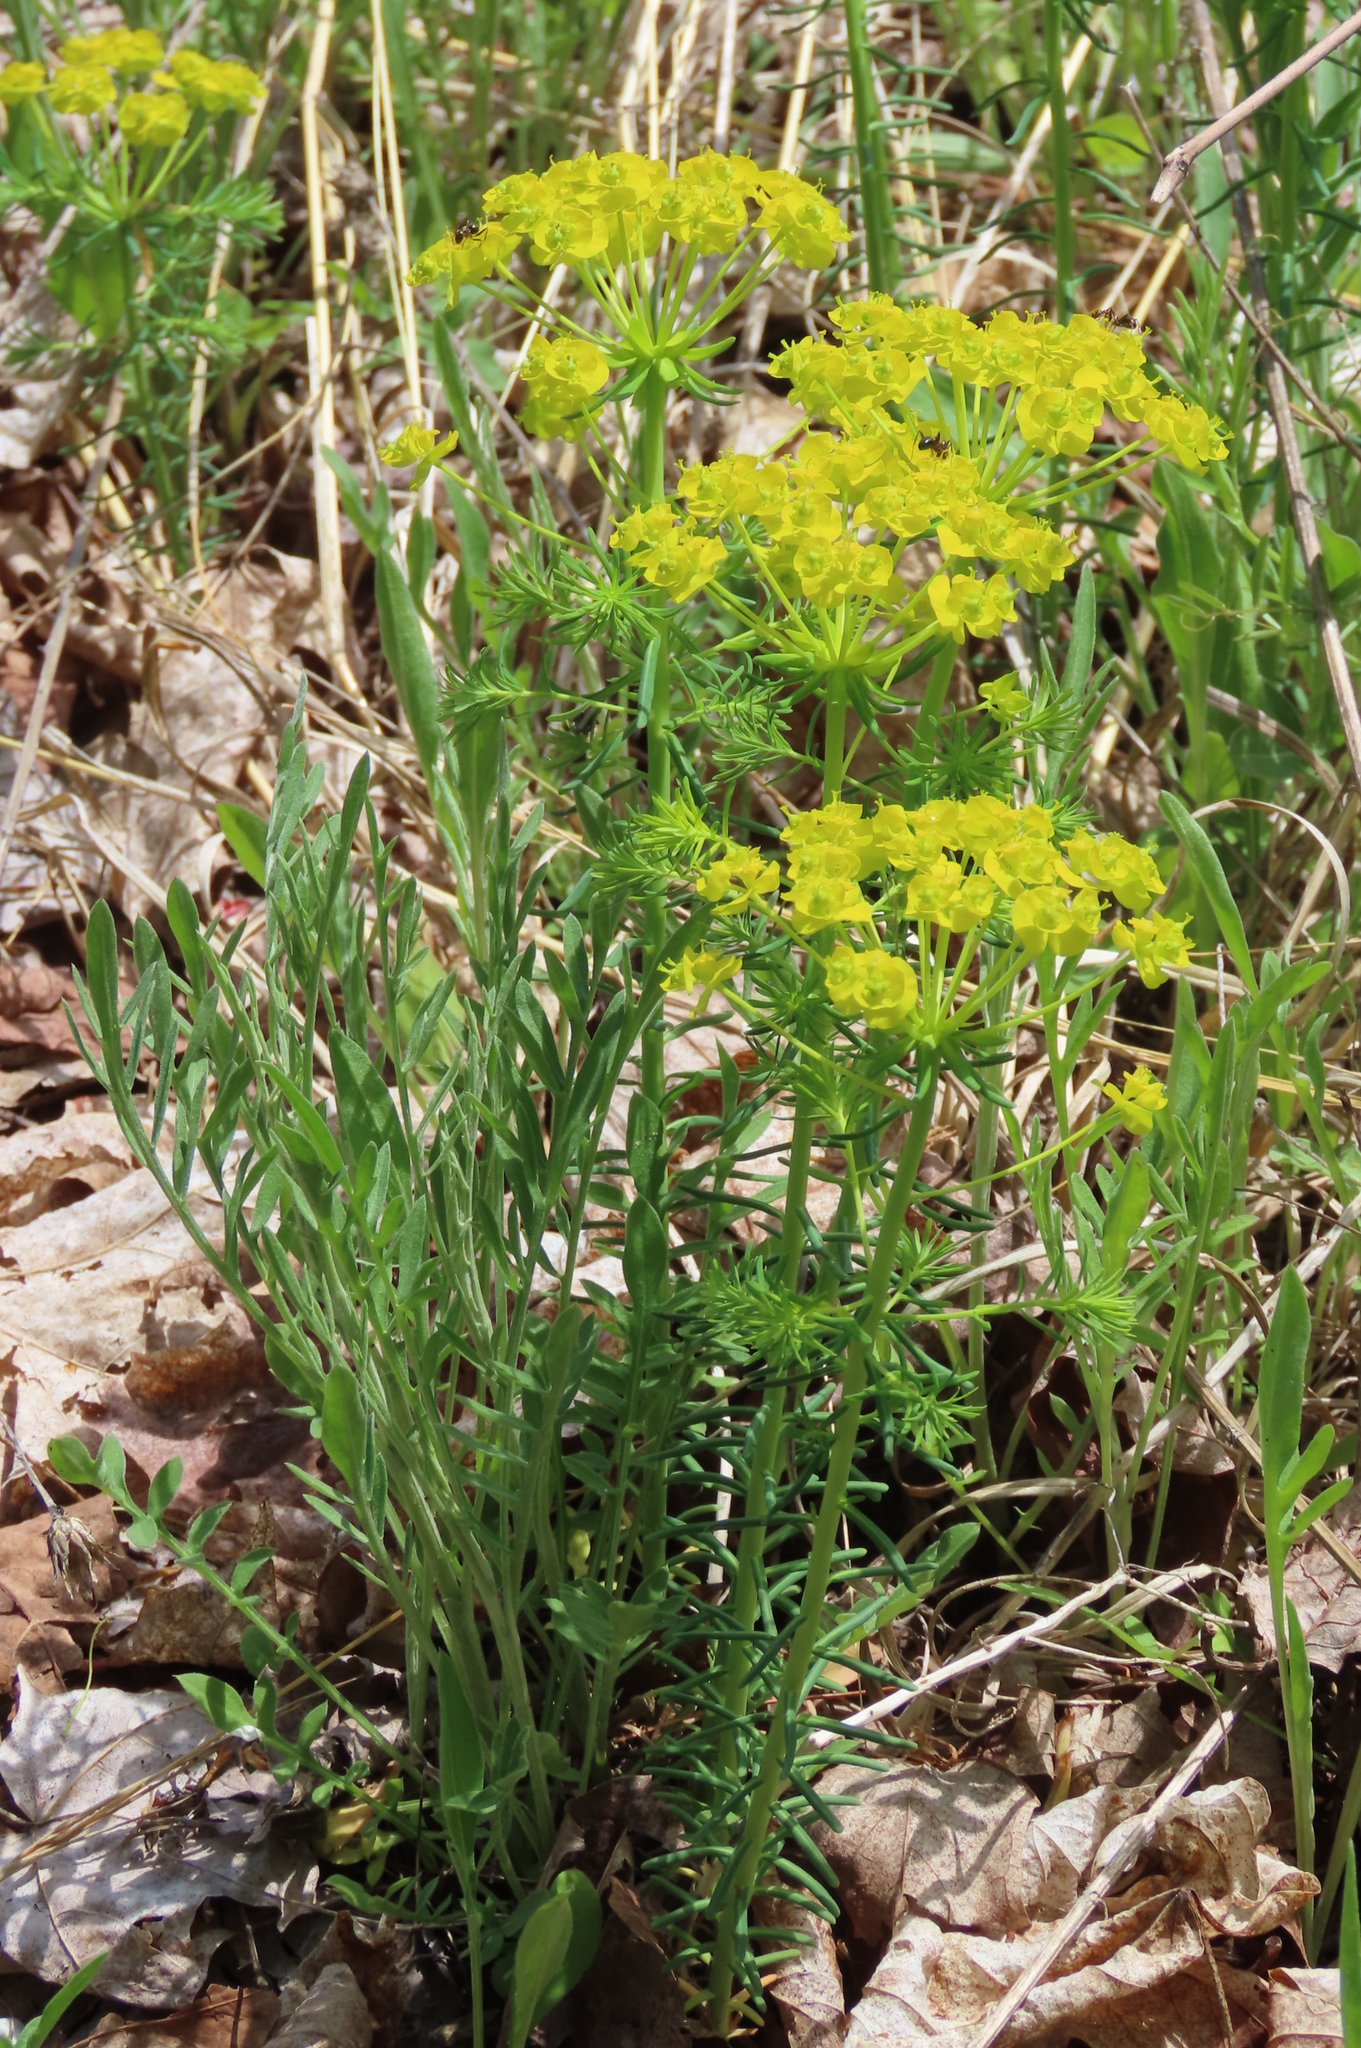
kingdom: Plantae
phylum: Tracheophyta
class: Magnoliopsida
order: Malpighiales
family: Euphorbiaceae
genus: Euphorbia
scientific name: Euphorbia cyparissias
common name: Cypress spurge
